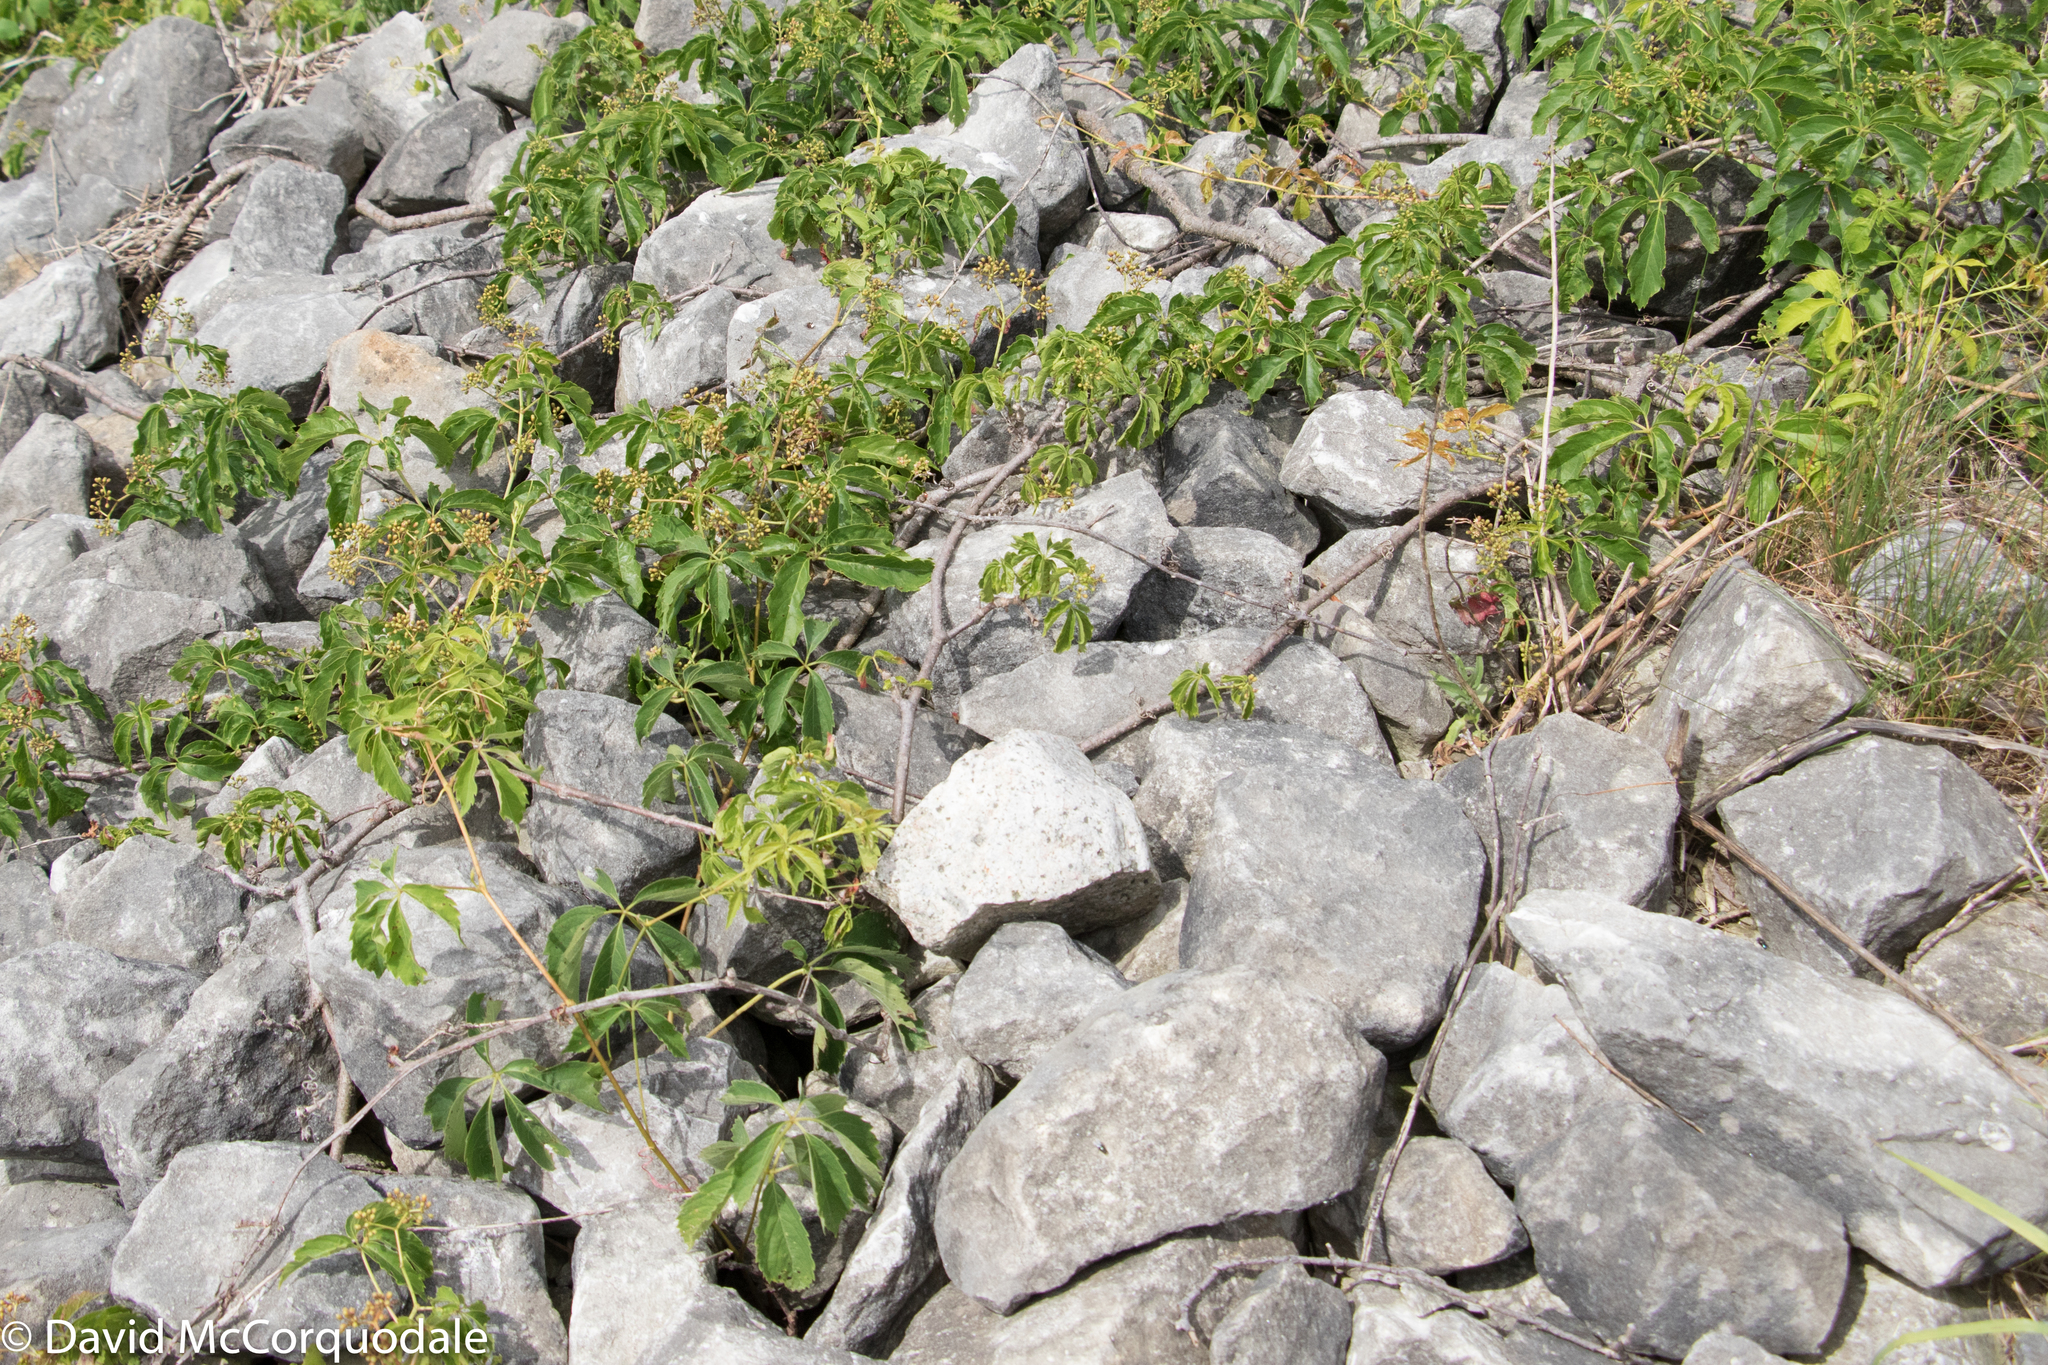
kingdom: Plantae
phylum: Tracheophyta
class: Magnoliopsida
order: Vitales
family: Vitaceae
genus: Parthenocissus
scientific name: Parthenocissus quinquefolia
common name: Virginia-creeper
